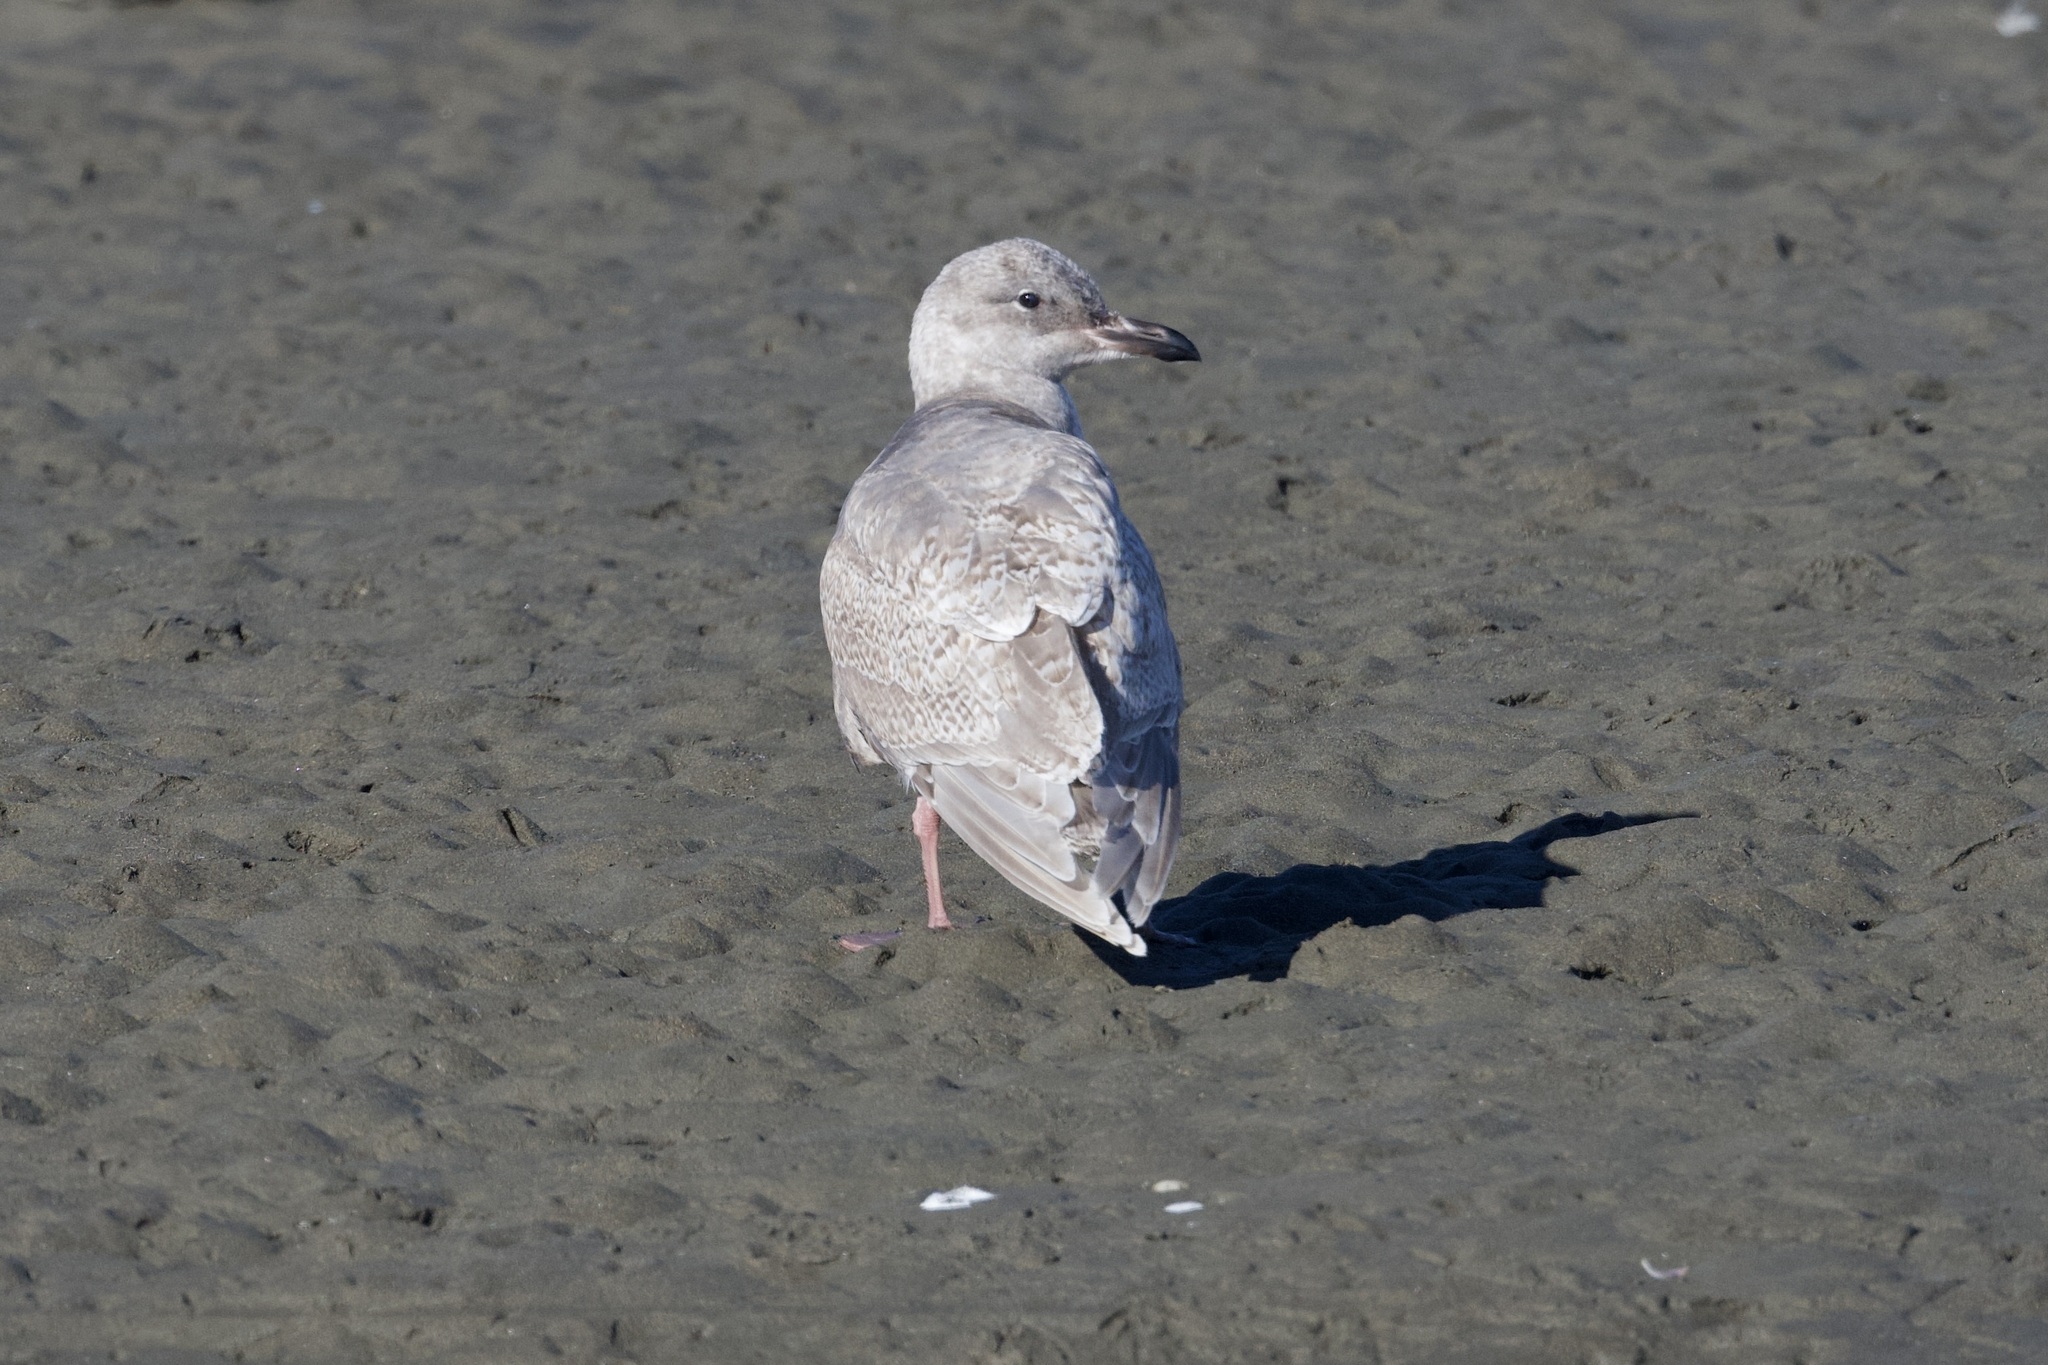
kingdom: Animalia
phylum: Chordata
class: Aves
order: Charadriiformes
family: Laridae
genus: Larus
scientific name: Larus glaucescens
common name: Glaucous-winged gull
